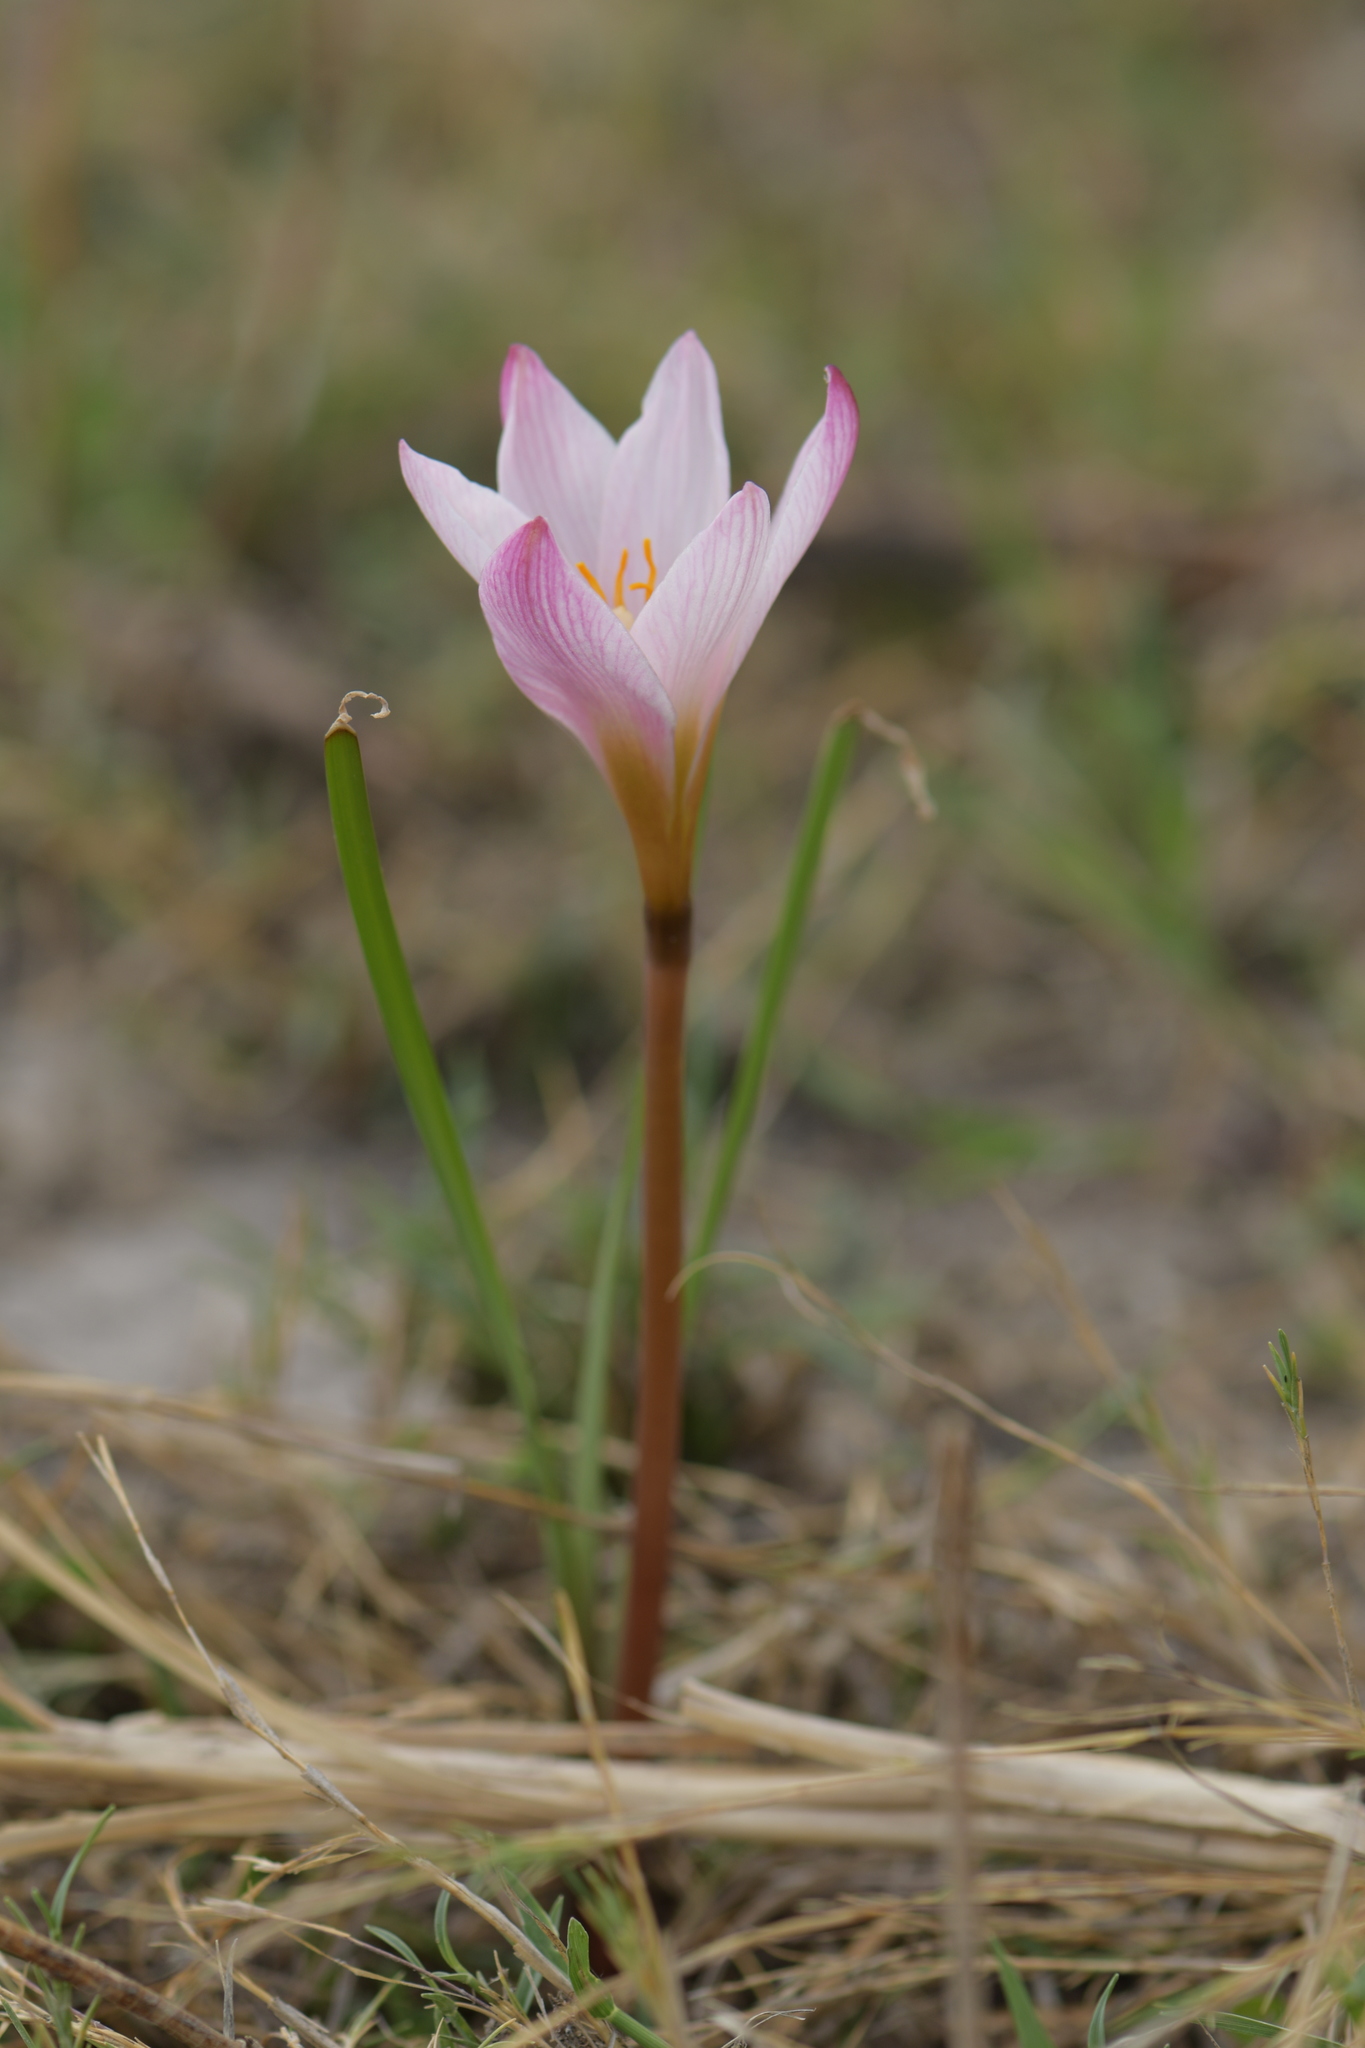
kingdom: Plantae
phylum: Tracheophyta
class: Liliopsida
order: Asparagales
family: Amaryllidaceae
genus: Zephyranthes
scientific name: Zephyranthes fosteri
